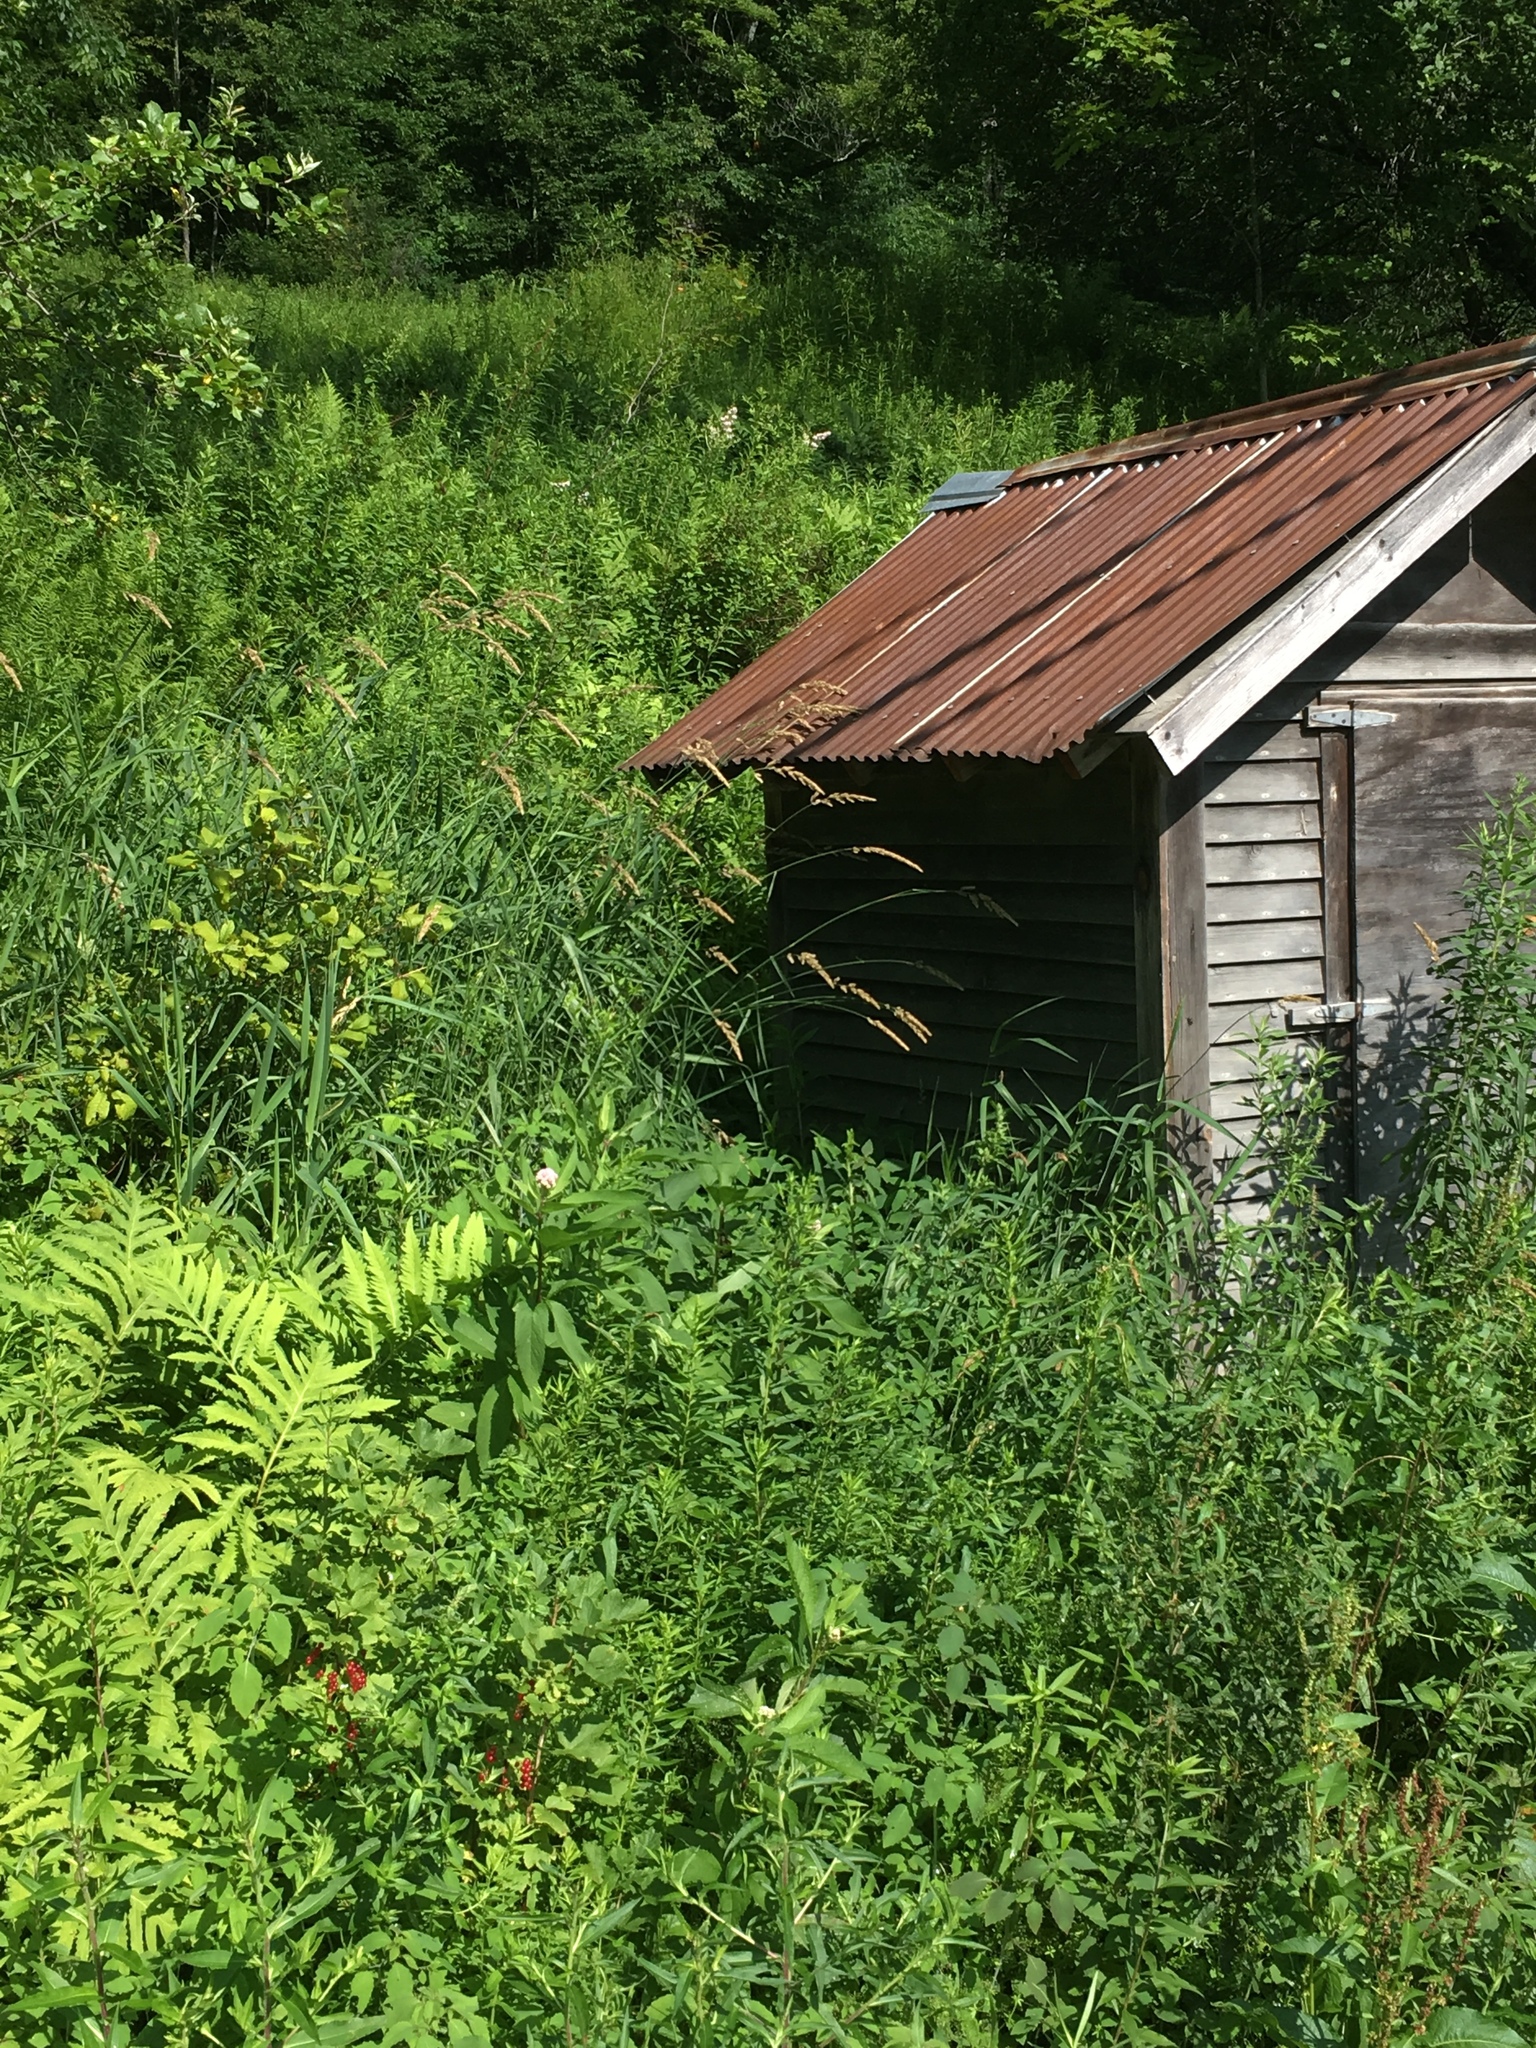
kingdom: Plantae
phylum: Tracheophyta
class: Liliopsida
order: Poales
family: Poaceae
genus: Phalaris
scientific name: Phalaris arundinacea
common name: Reed canary-grass
